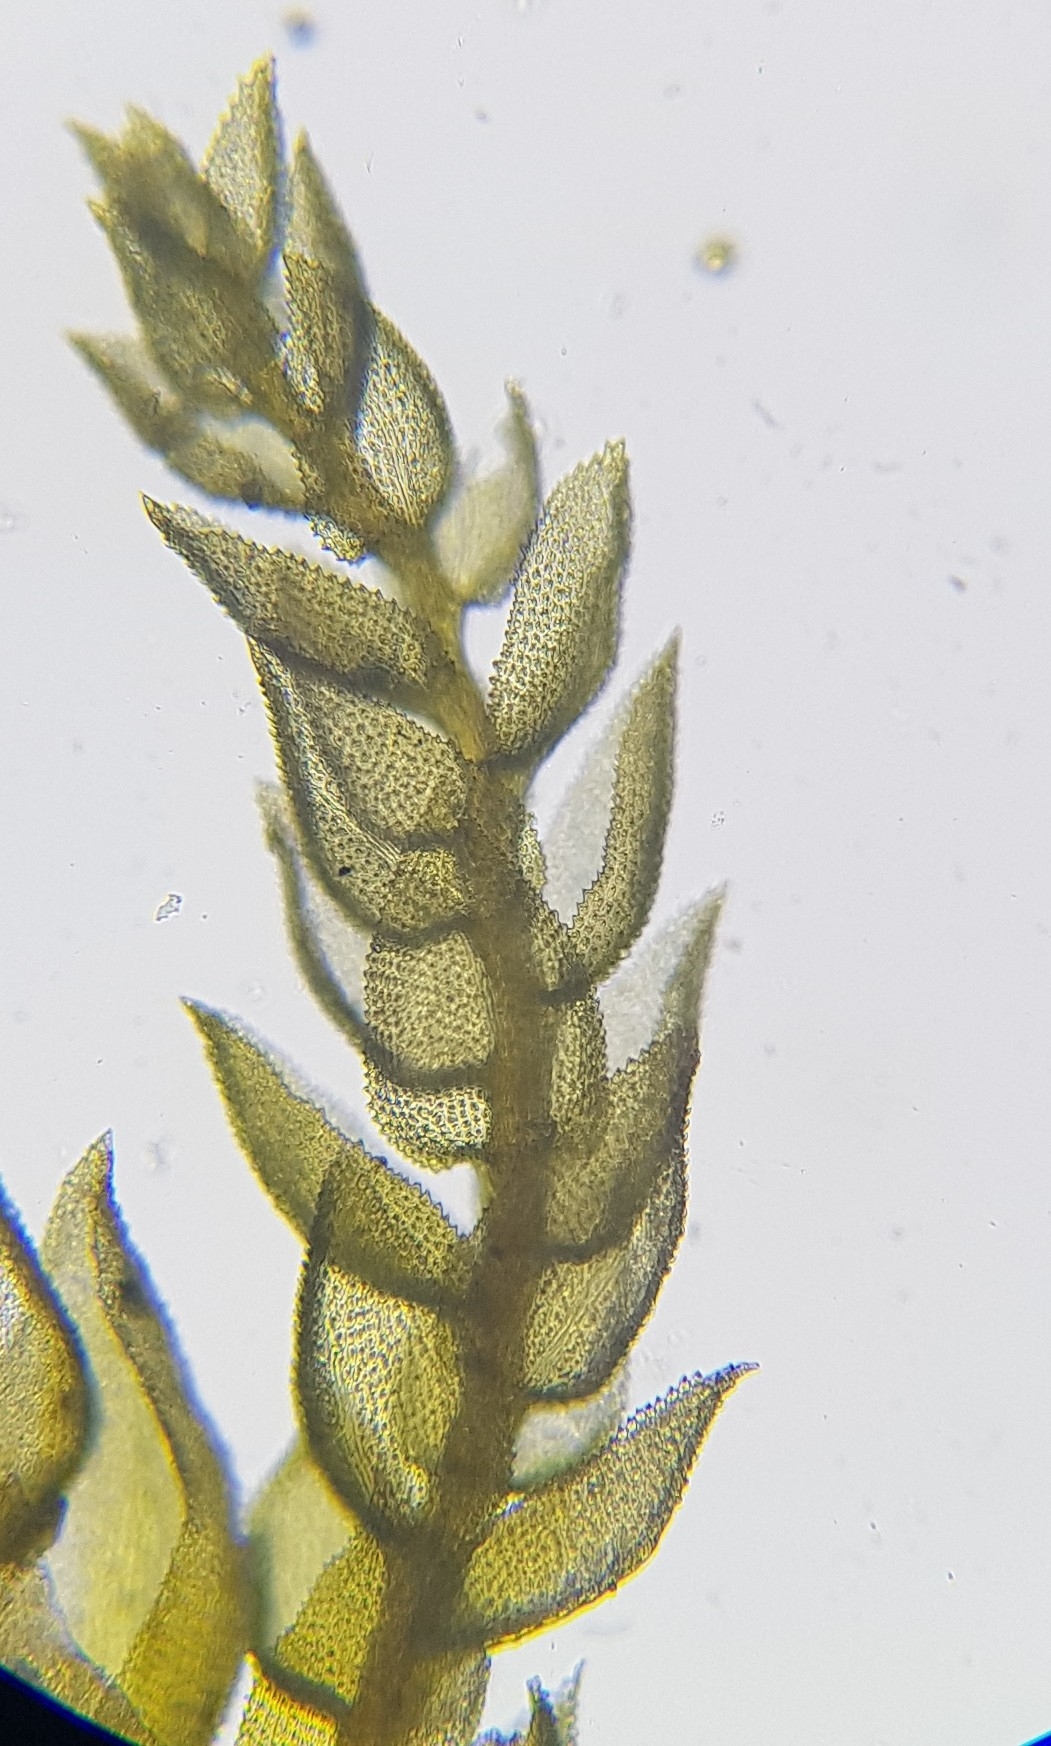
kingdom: Plantae
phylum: Bryophyta
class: Bryopsida
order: Hypnales
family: Thuidiaceae
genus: Thuidium
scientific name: Thuidium tamariscinum
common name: Common tamarisk-moss
